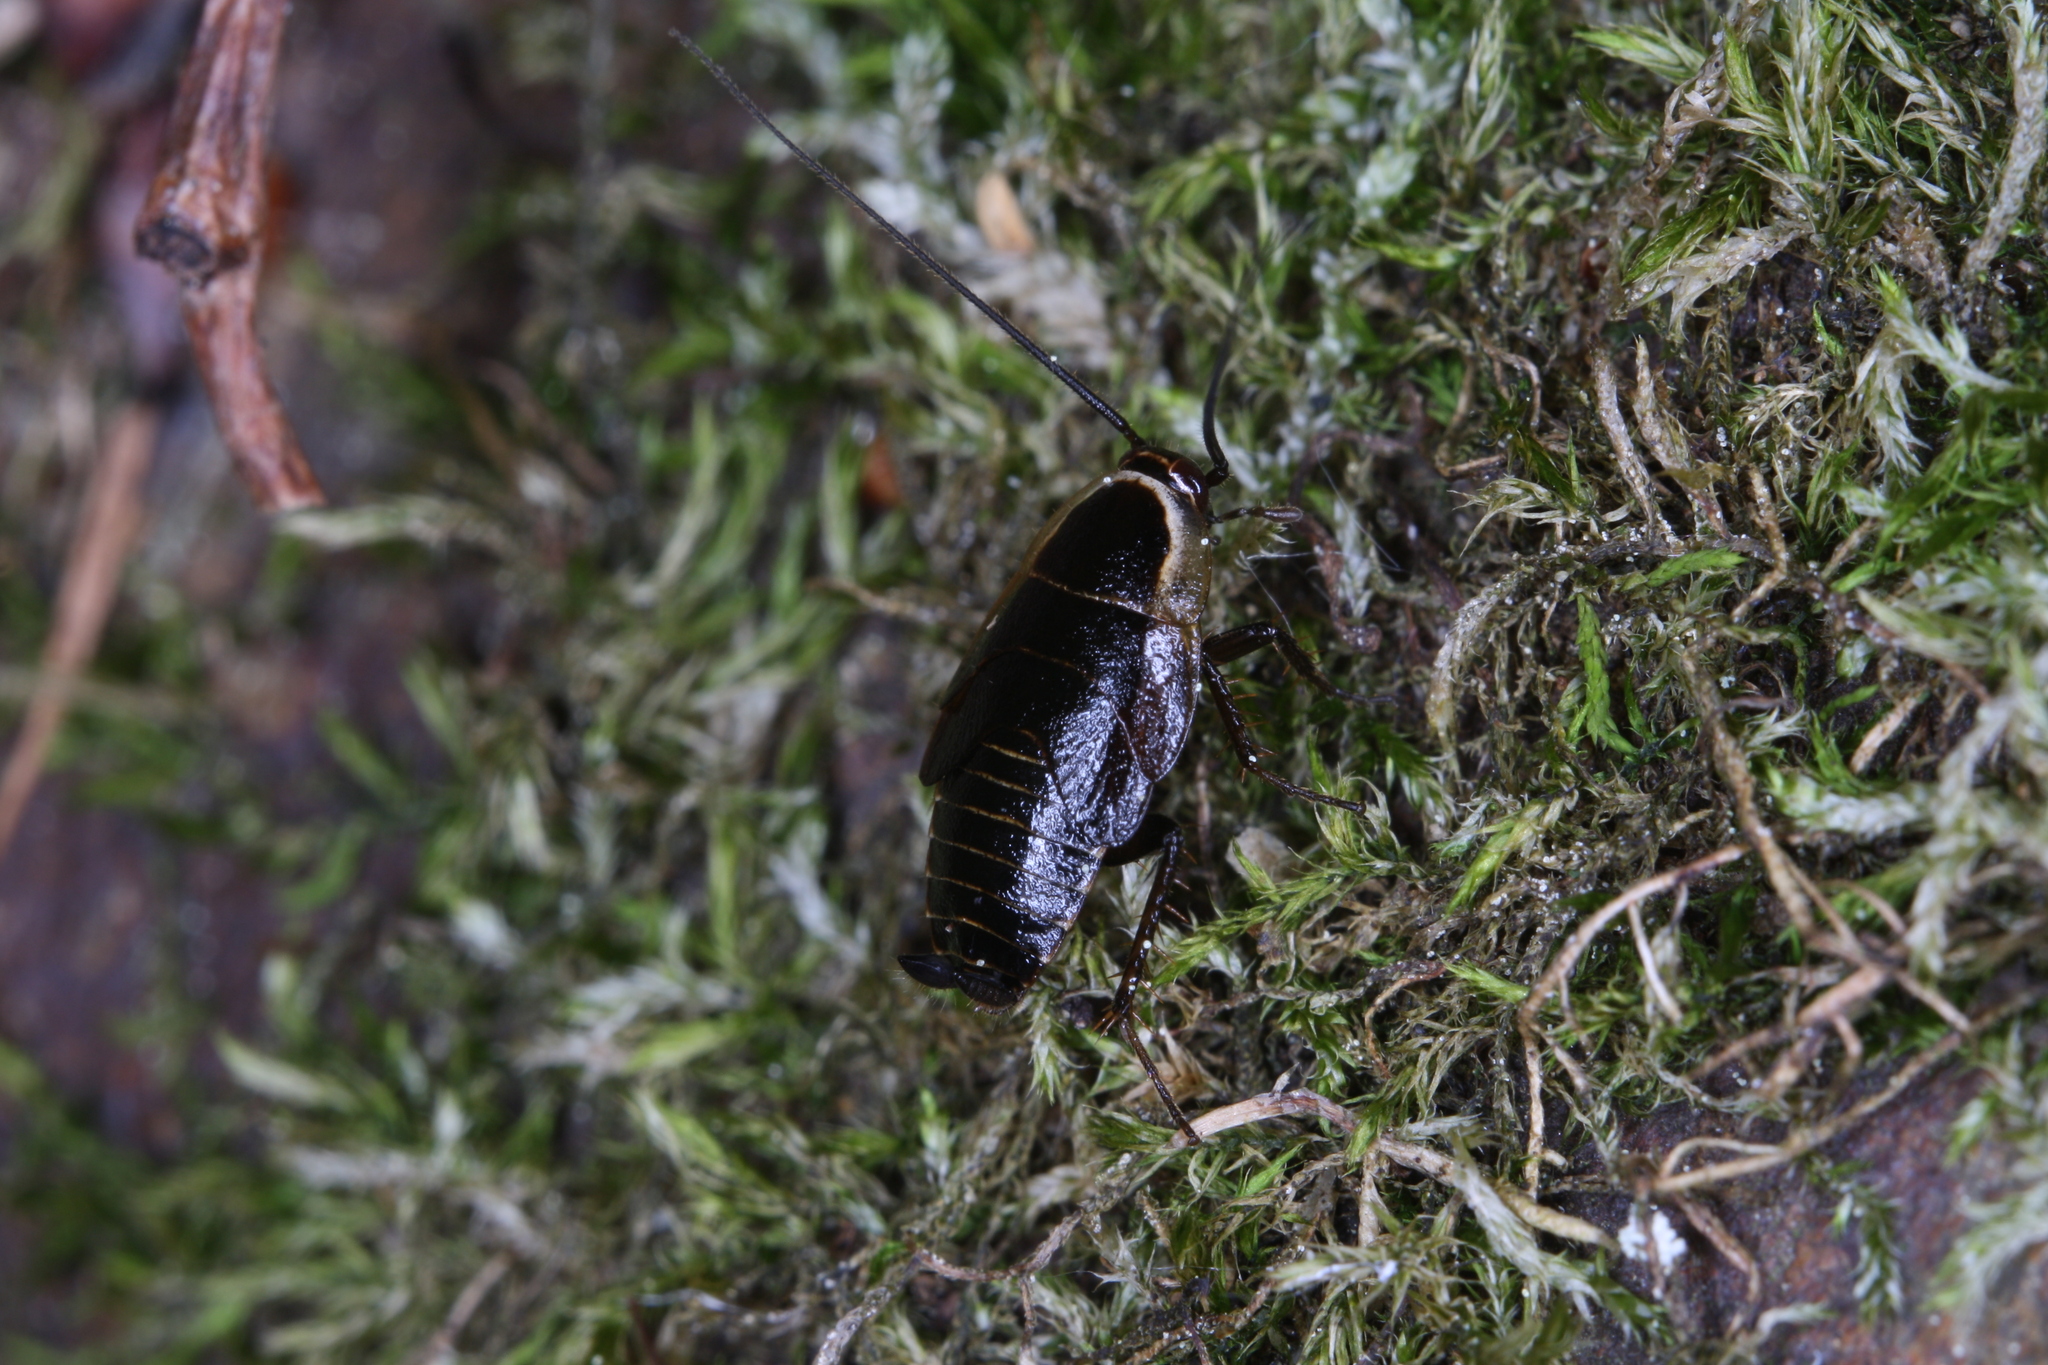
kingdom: Animalia
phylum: Arthropoda
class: Insecta
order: Blattodea
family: Ectobiidae
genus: Ectobius
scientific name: Ectobius sylvestris
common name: Forest cockroach
